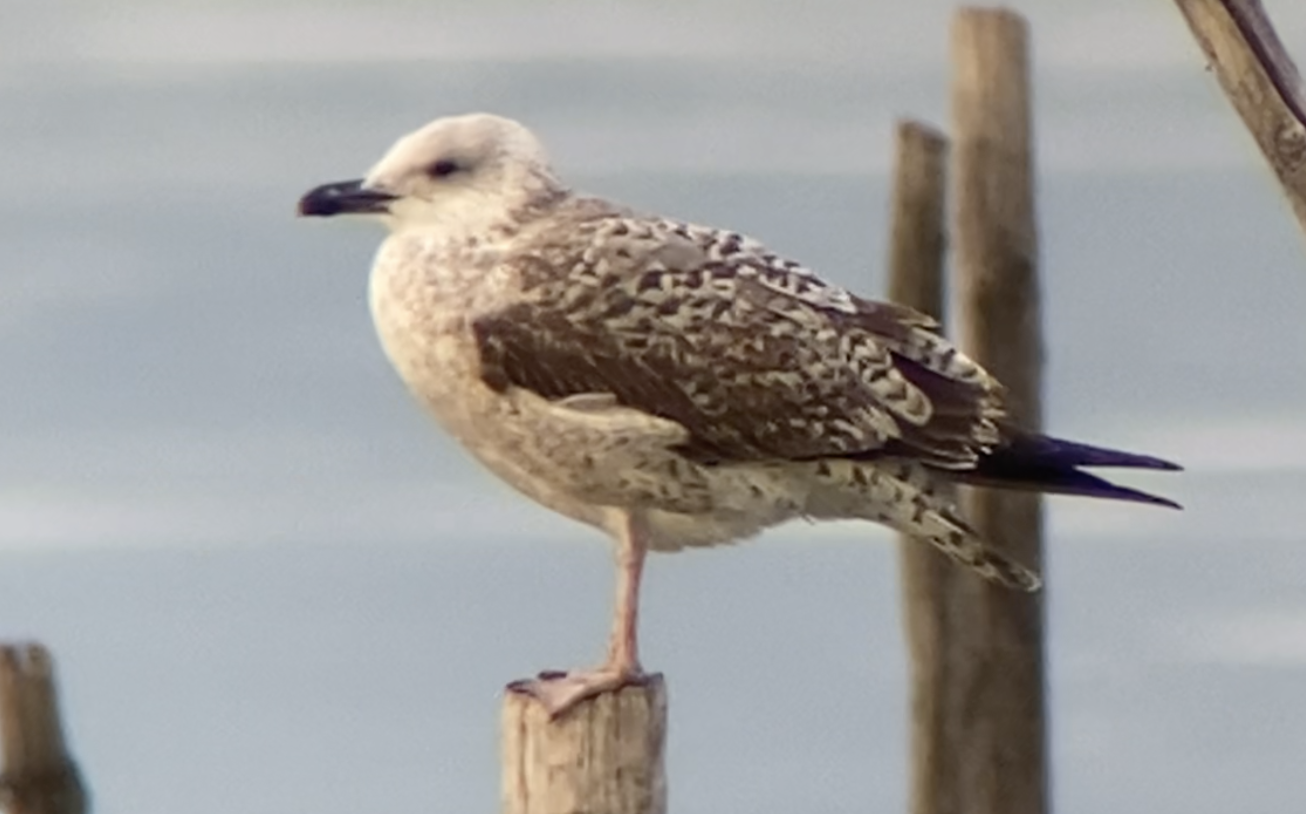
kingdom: Animalia
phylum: Chordata
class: Aves
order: Charadriiformes
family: Laridae
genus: Larus
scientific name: Larus michahellis
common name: Yellow-legged gull
